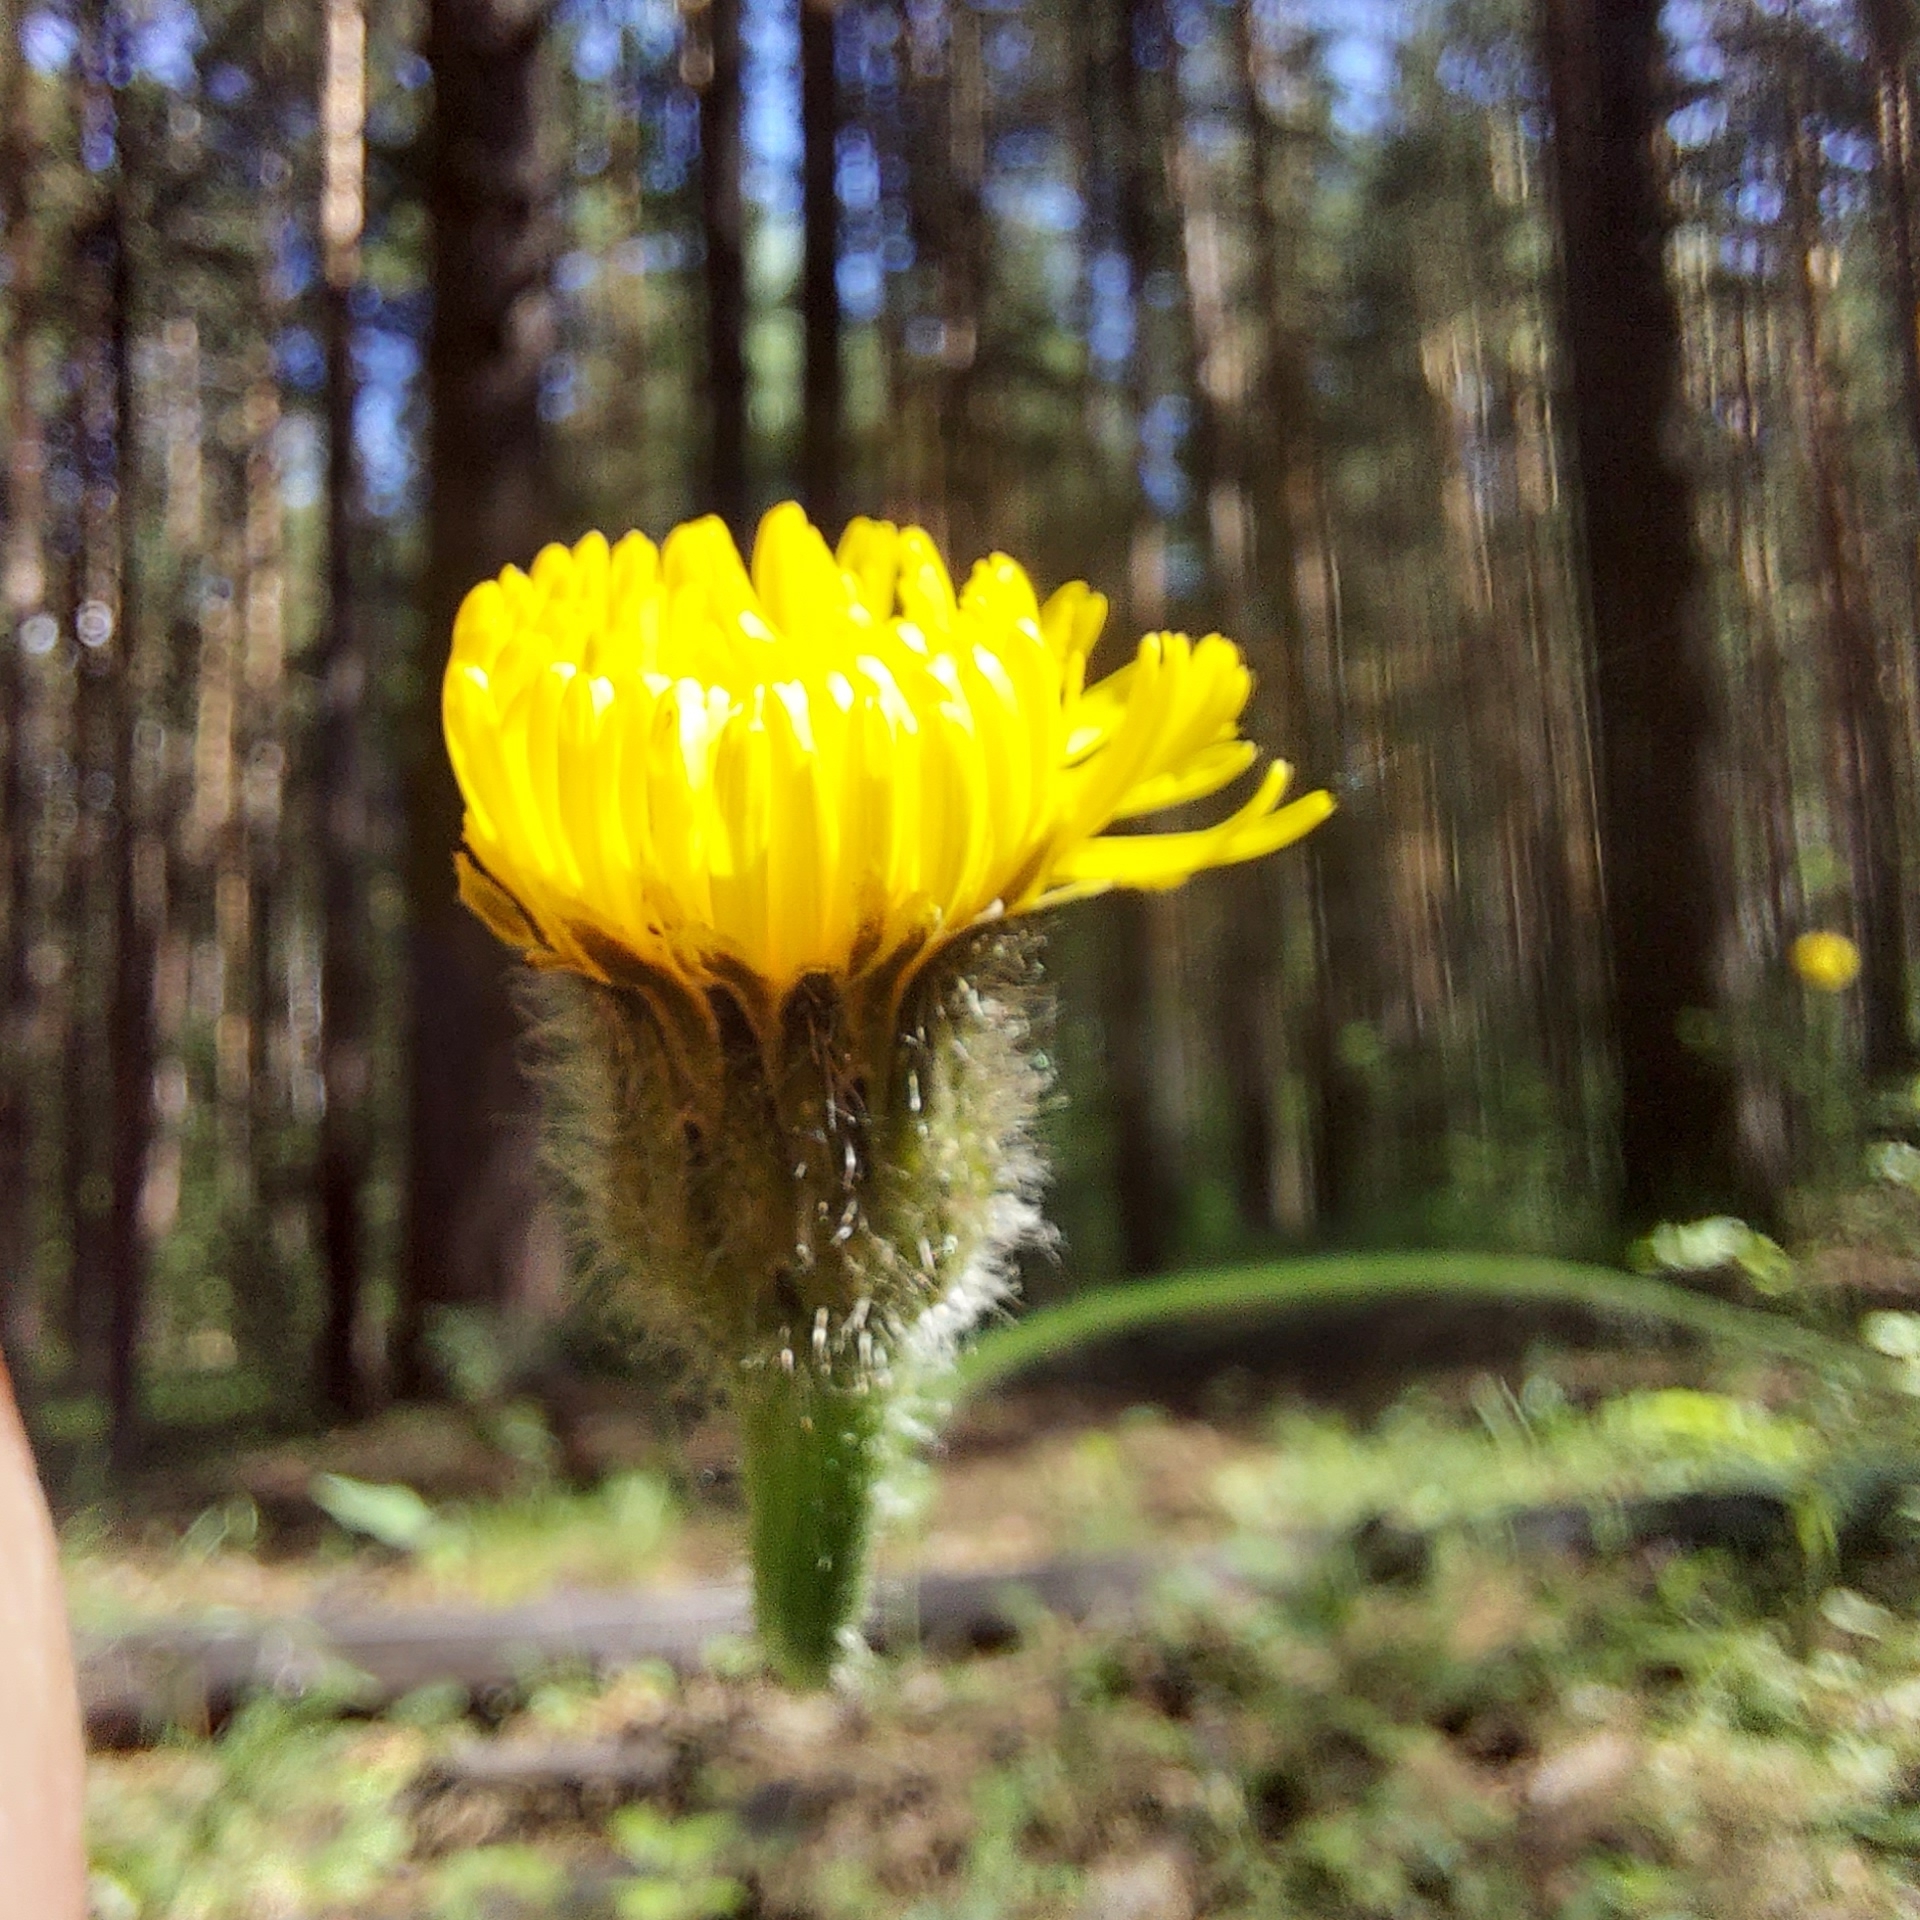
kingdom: Plantae
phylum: Tracheophyta
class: Magnoliopsida
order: Asterales
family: Asteraceae
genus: Trommsdorffia
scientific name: Trommsdorffia maculata
